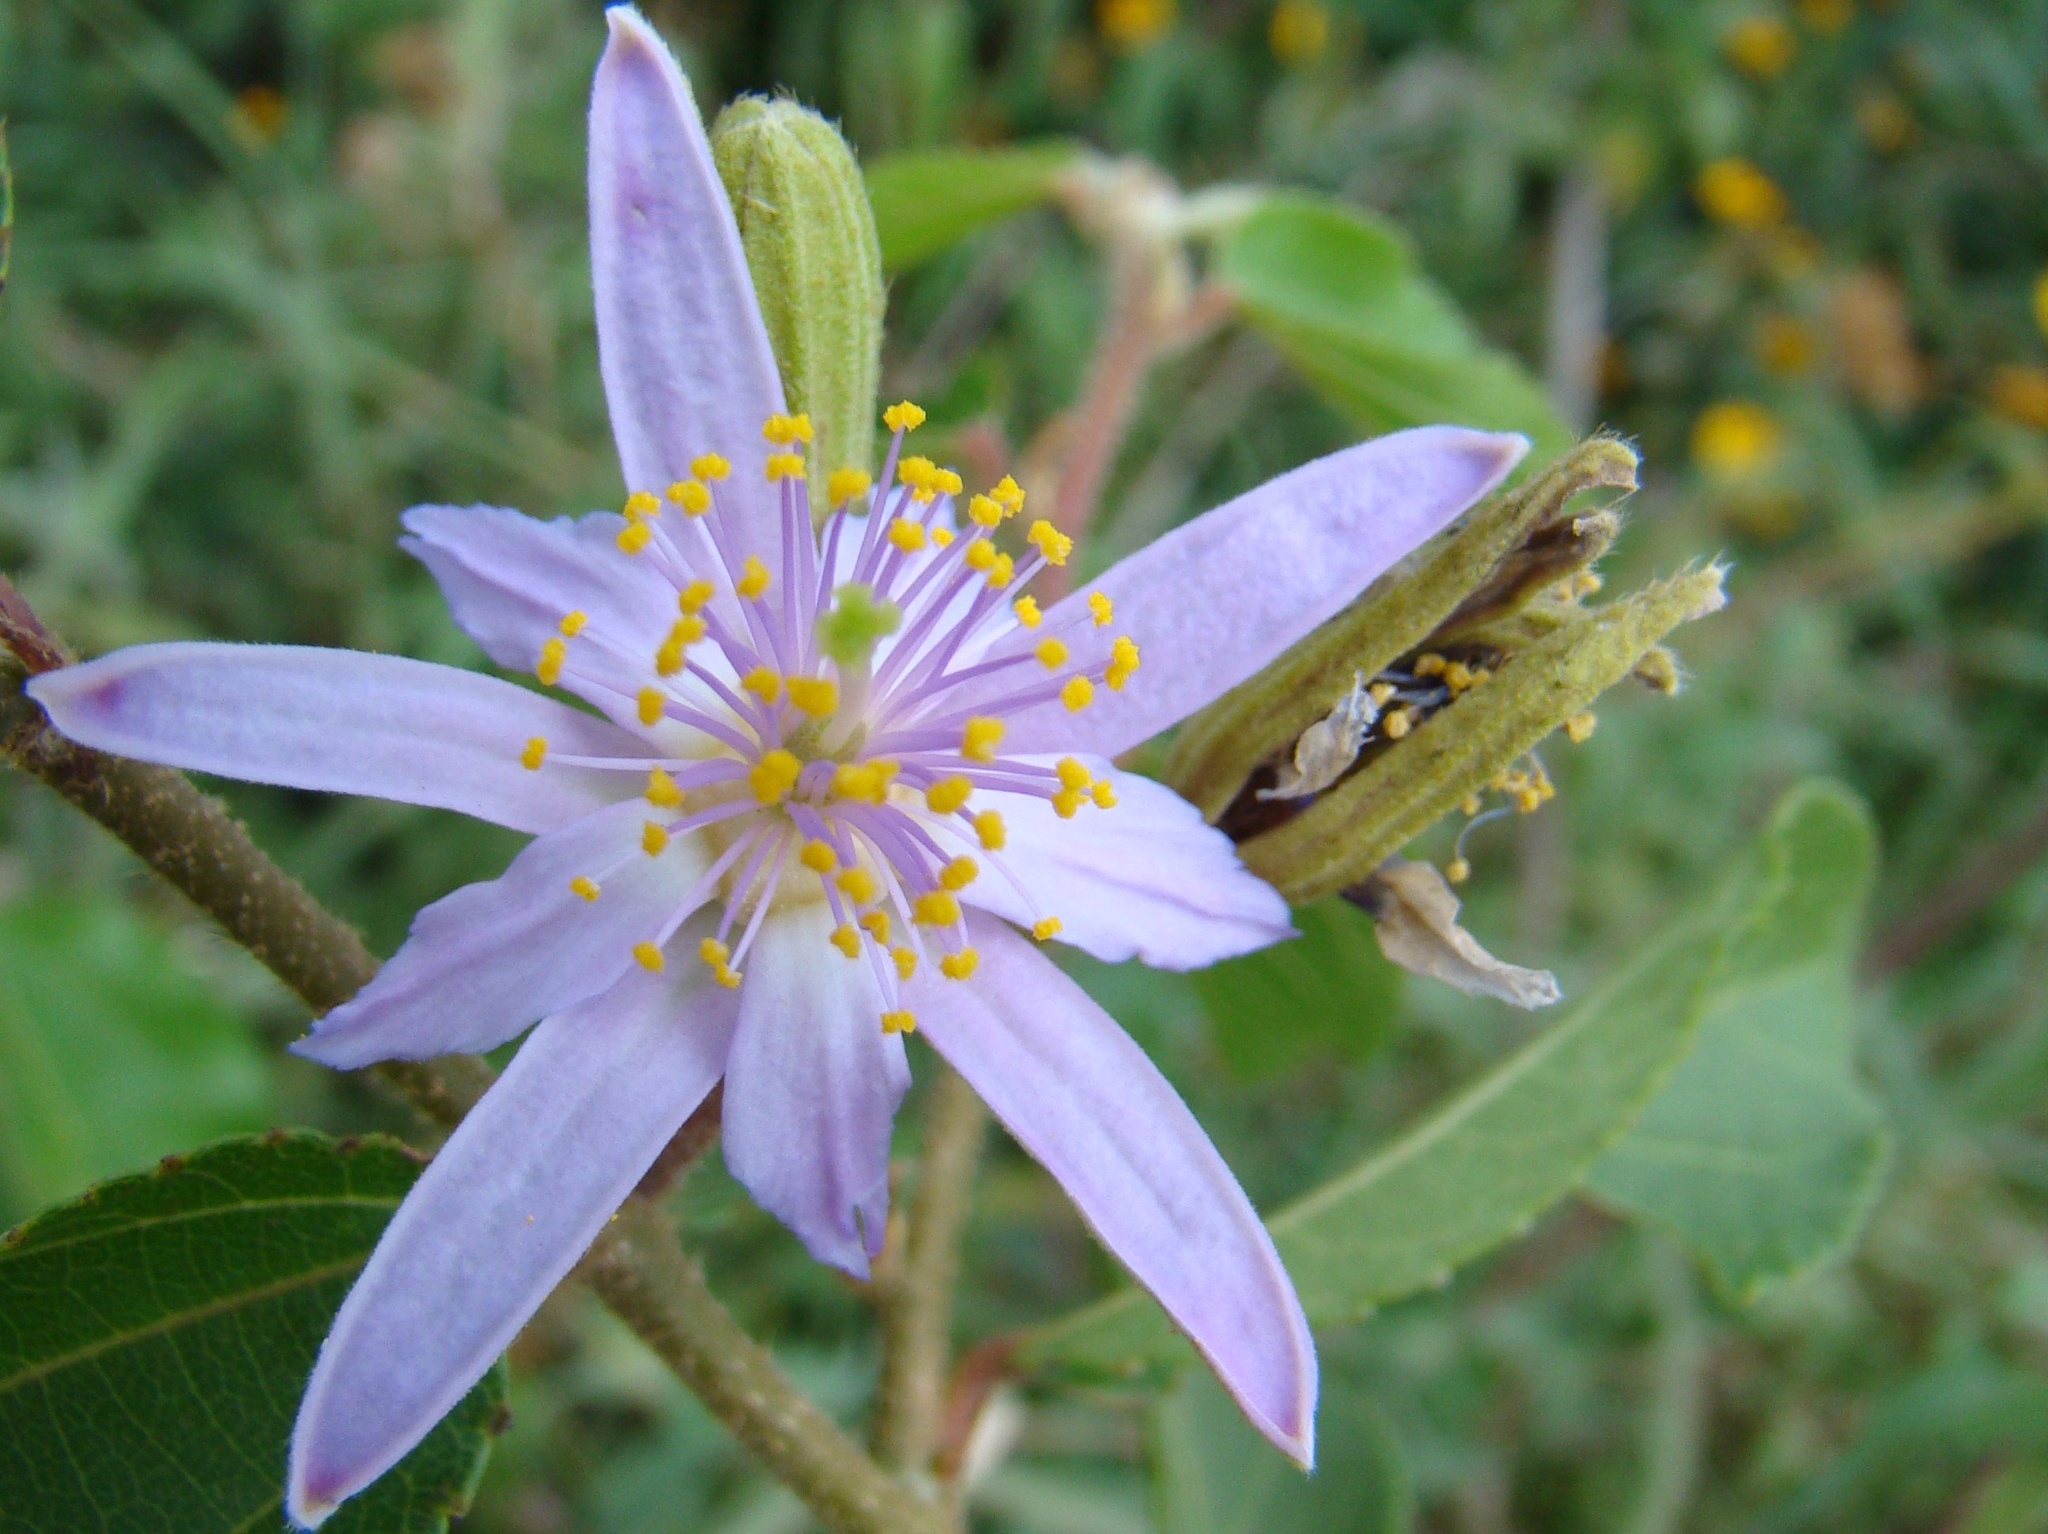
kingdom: Plantae
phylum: Tracheophyta
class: Magnoliopsida
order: Malvales
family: Malvaceae
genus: Grewia
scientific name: Grewia occidentalis
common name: Crossberry
